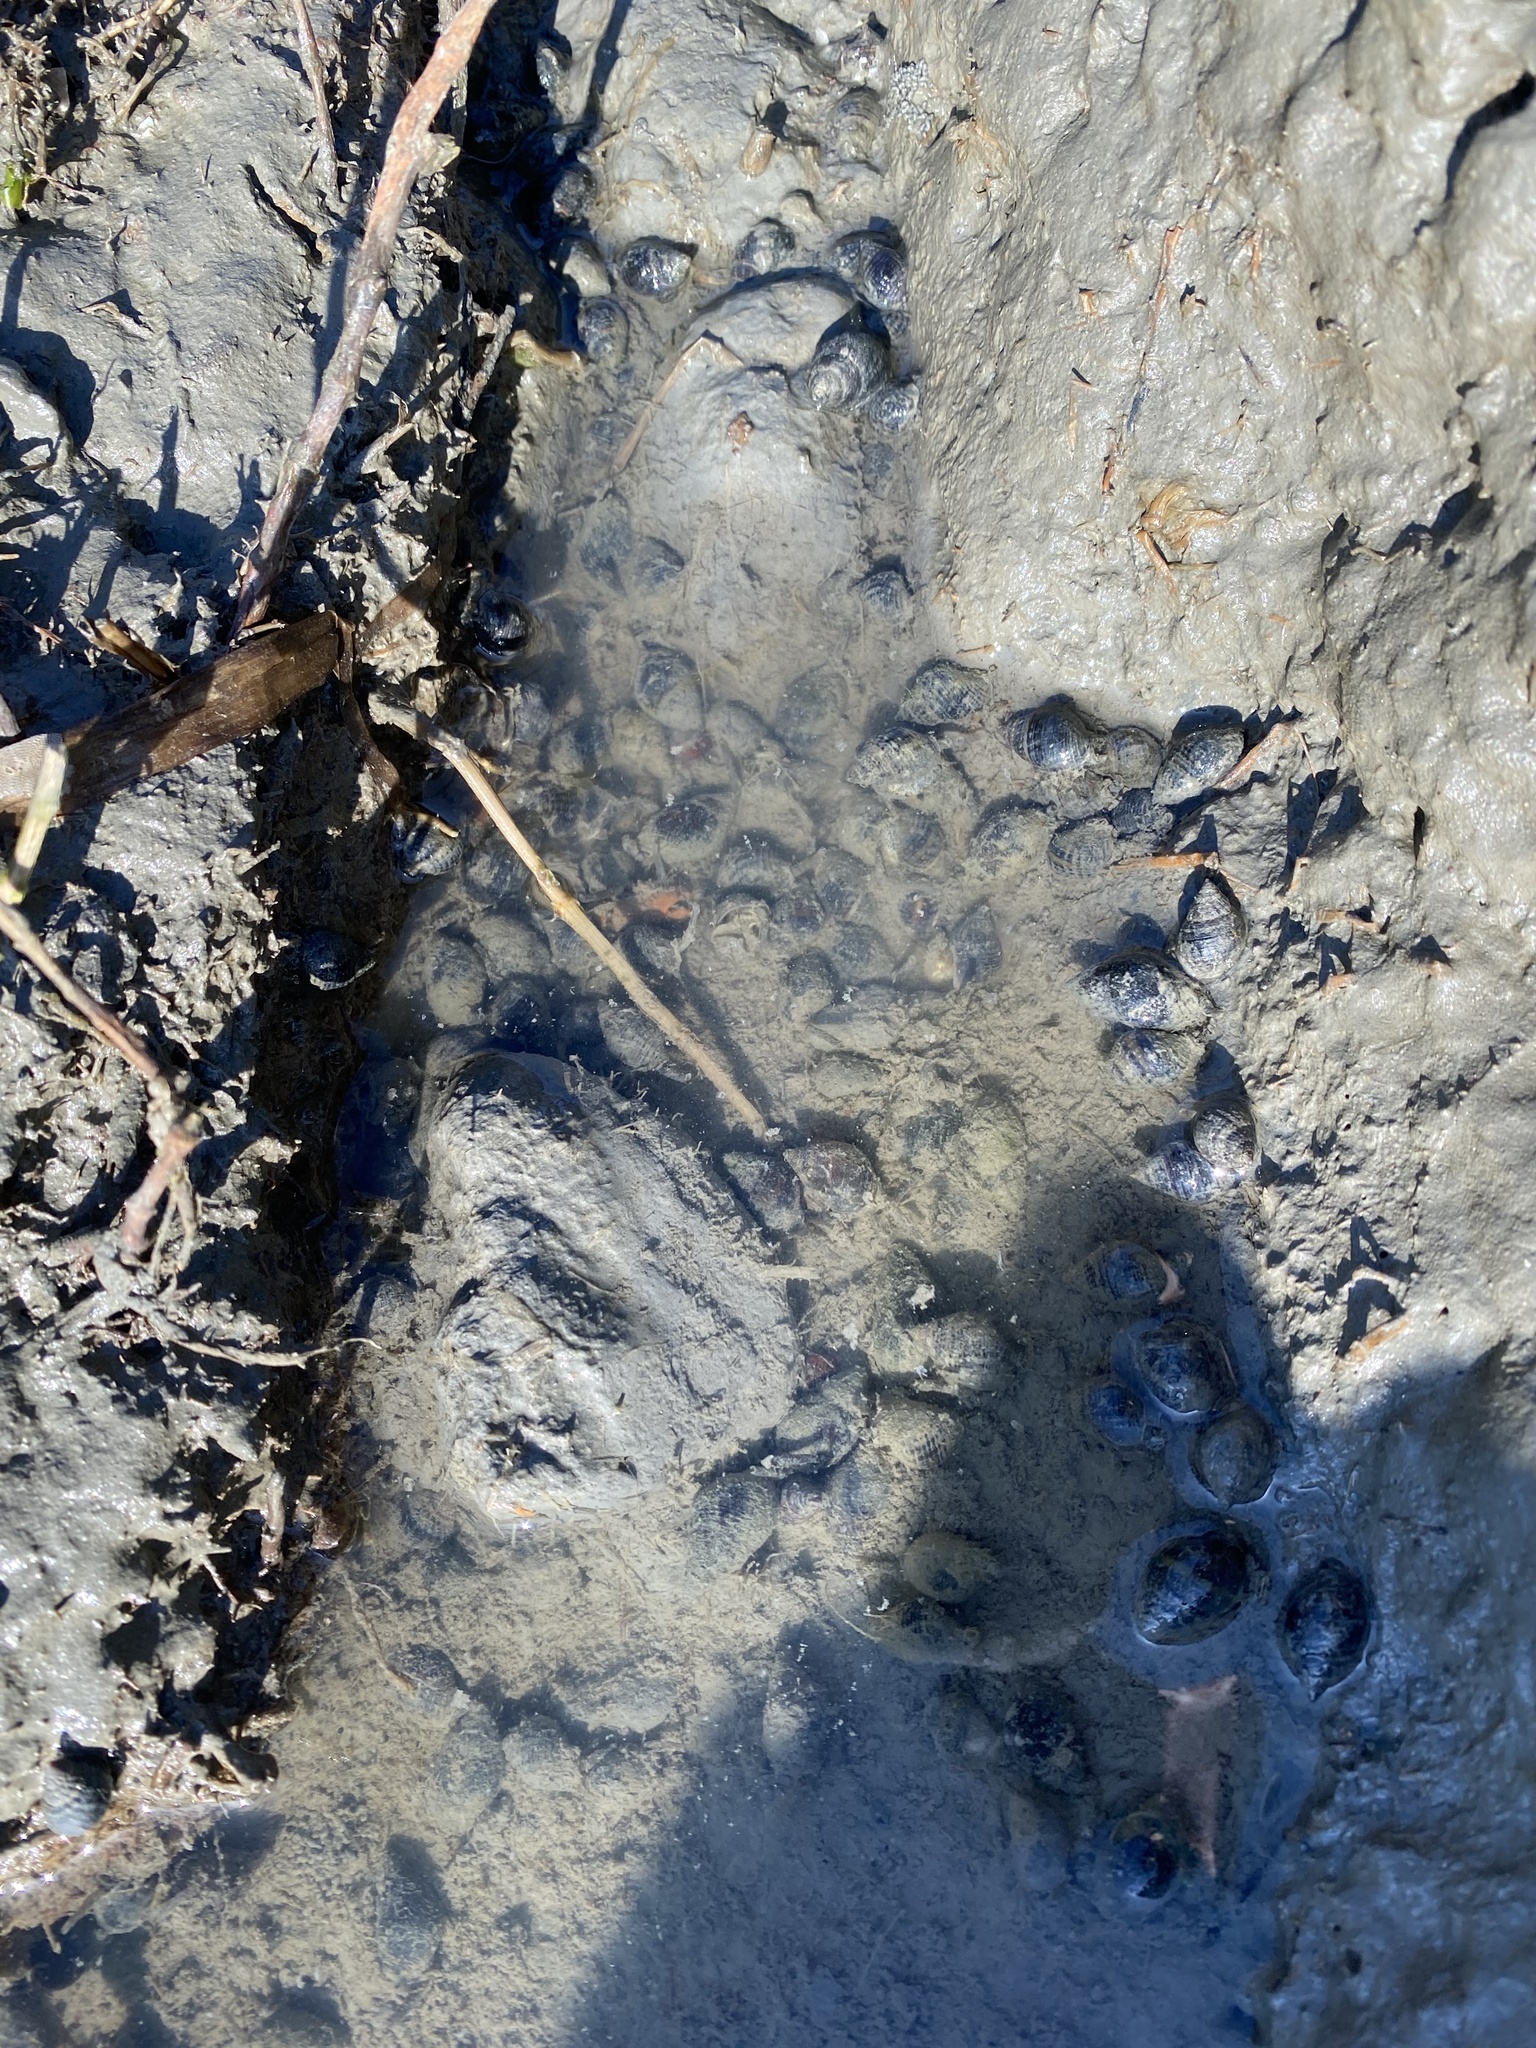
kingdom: Animalia
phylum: Mollusca
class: Gastropoda
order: Neogastropoda
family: Nassariidae
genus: Ilyanassa
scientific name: Ilyanassa obsoleta
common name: Eastern mudsnail
